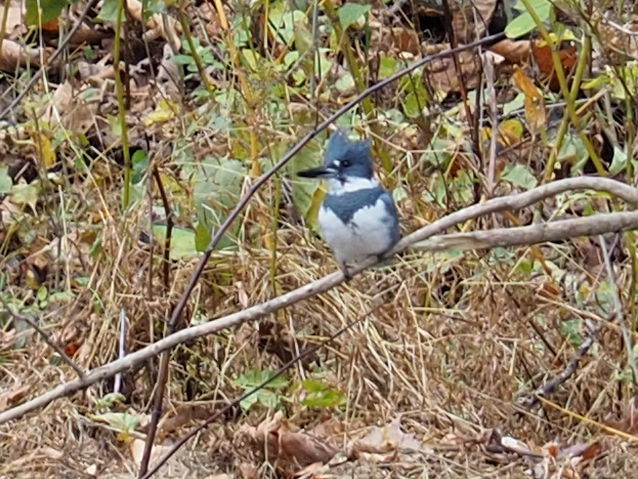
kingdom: Animalia
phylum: Chordata
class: Aves
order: Coraciiformes
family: Alcedinidae
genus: Megaceryle
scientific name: Megaceryle alcyon
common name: Belted kingfisher
